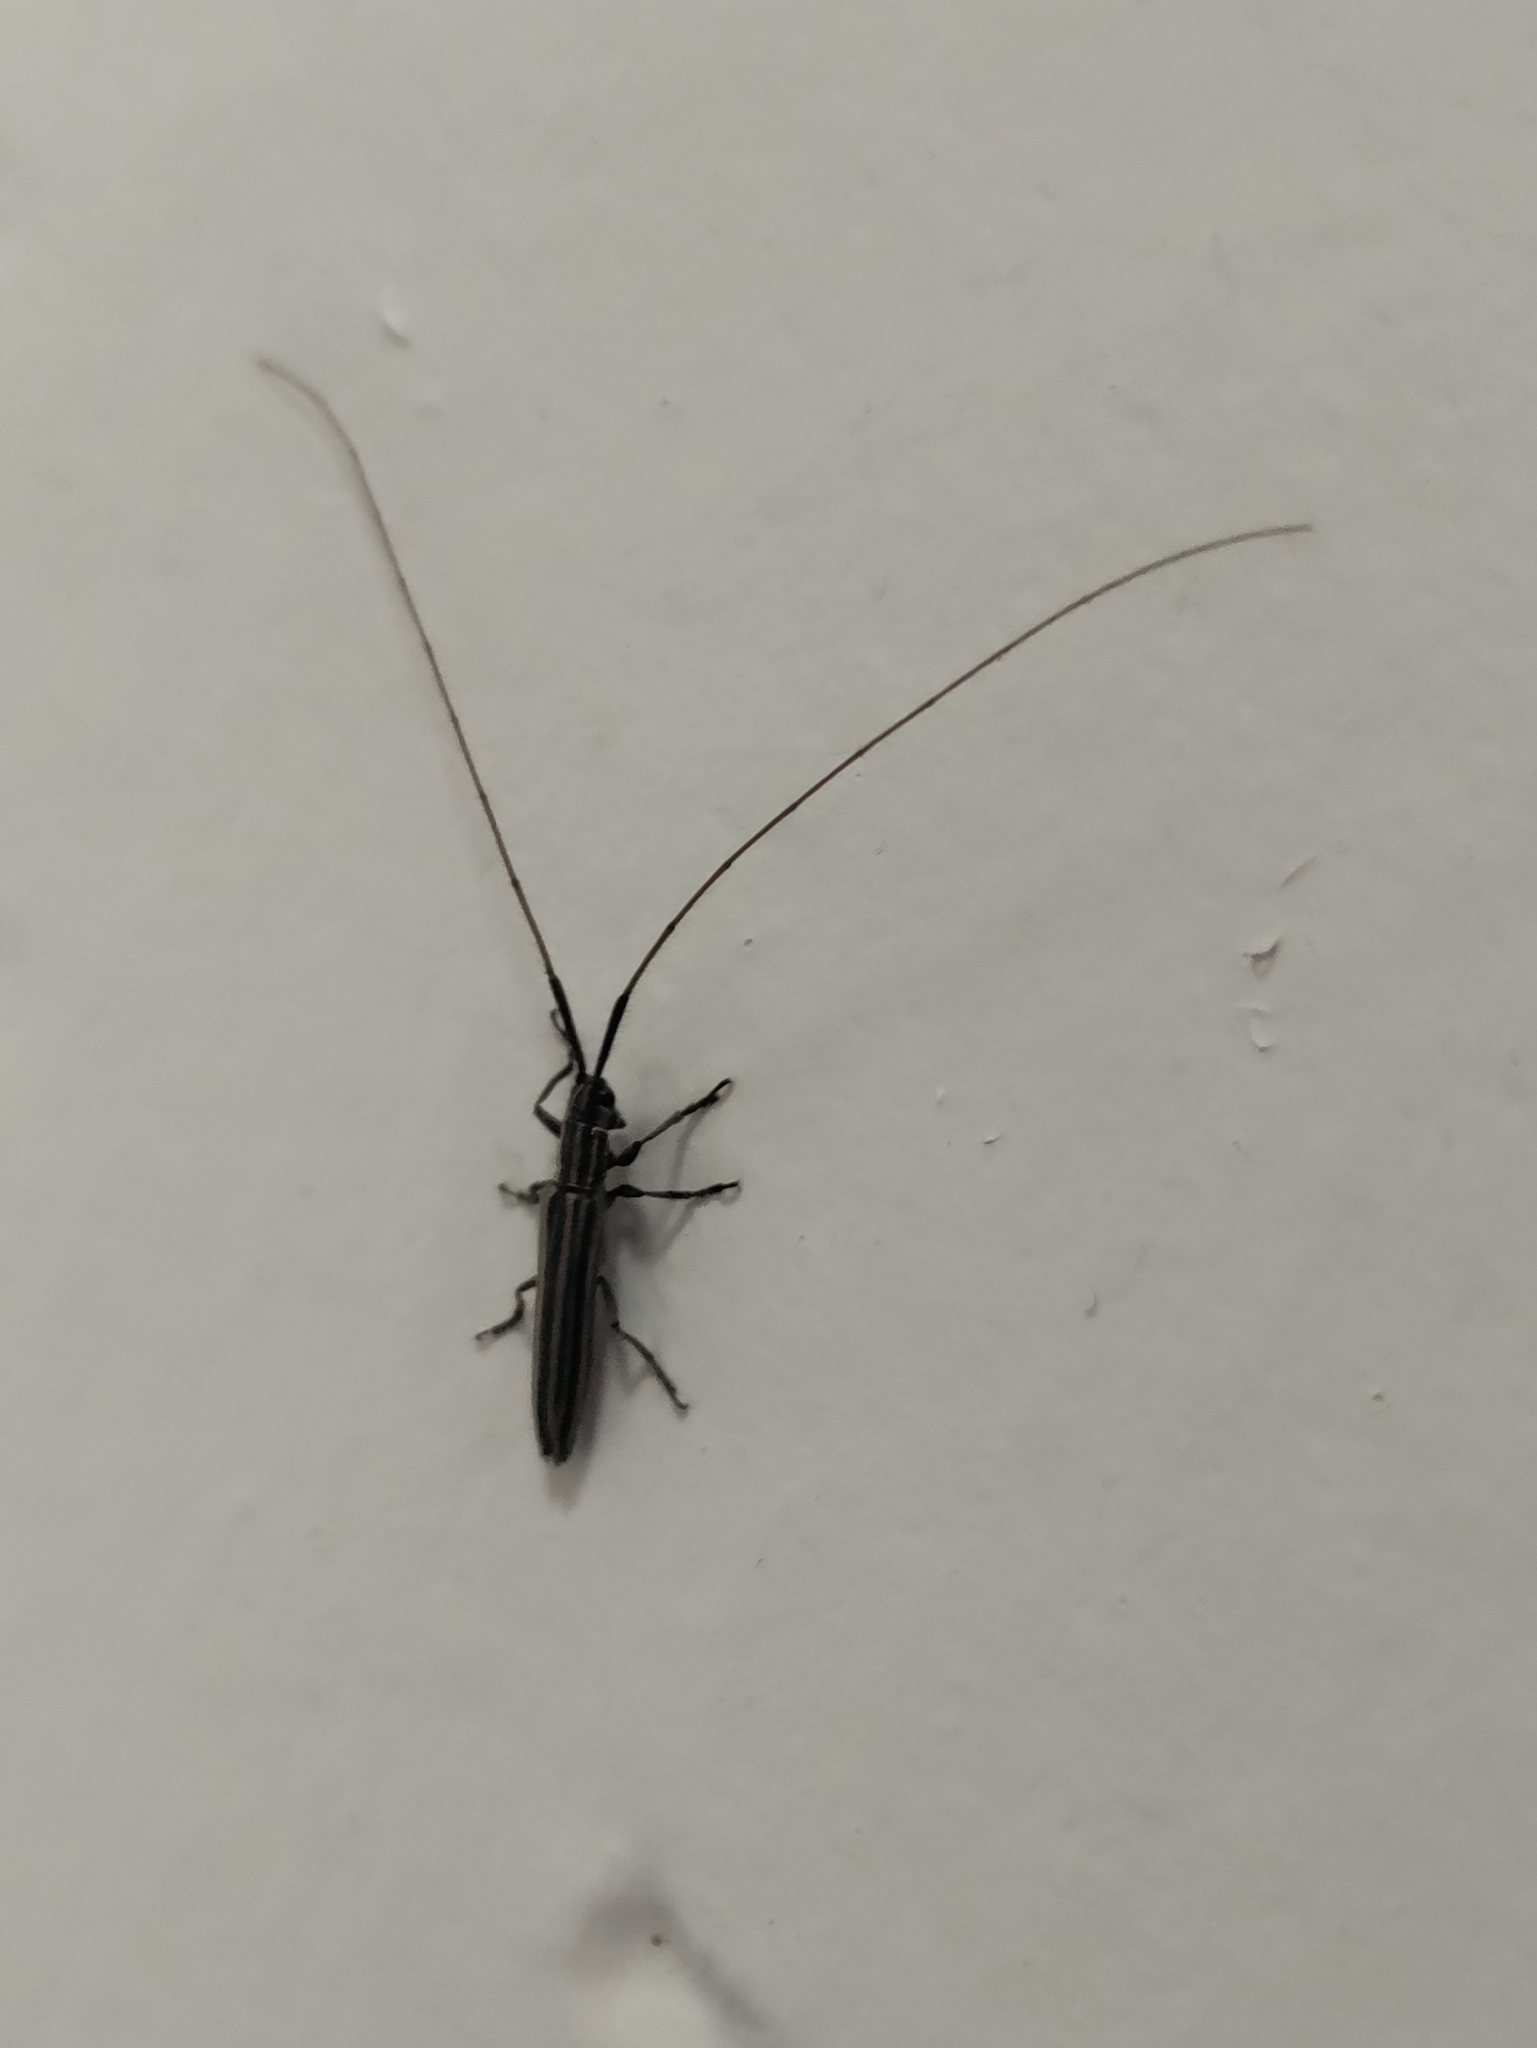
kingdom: Animalia
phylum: Arthropoda
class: Insecta
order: Coleoptera
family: Cerambycidae
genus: Hippopsis
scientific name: Hippopsis
